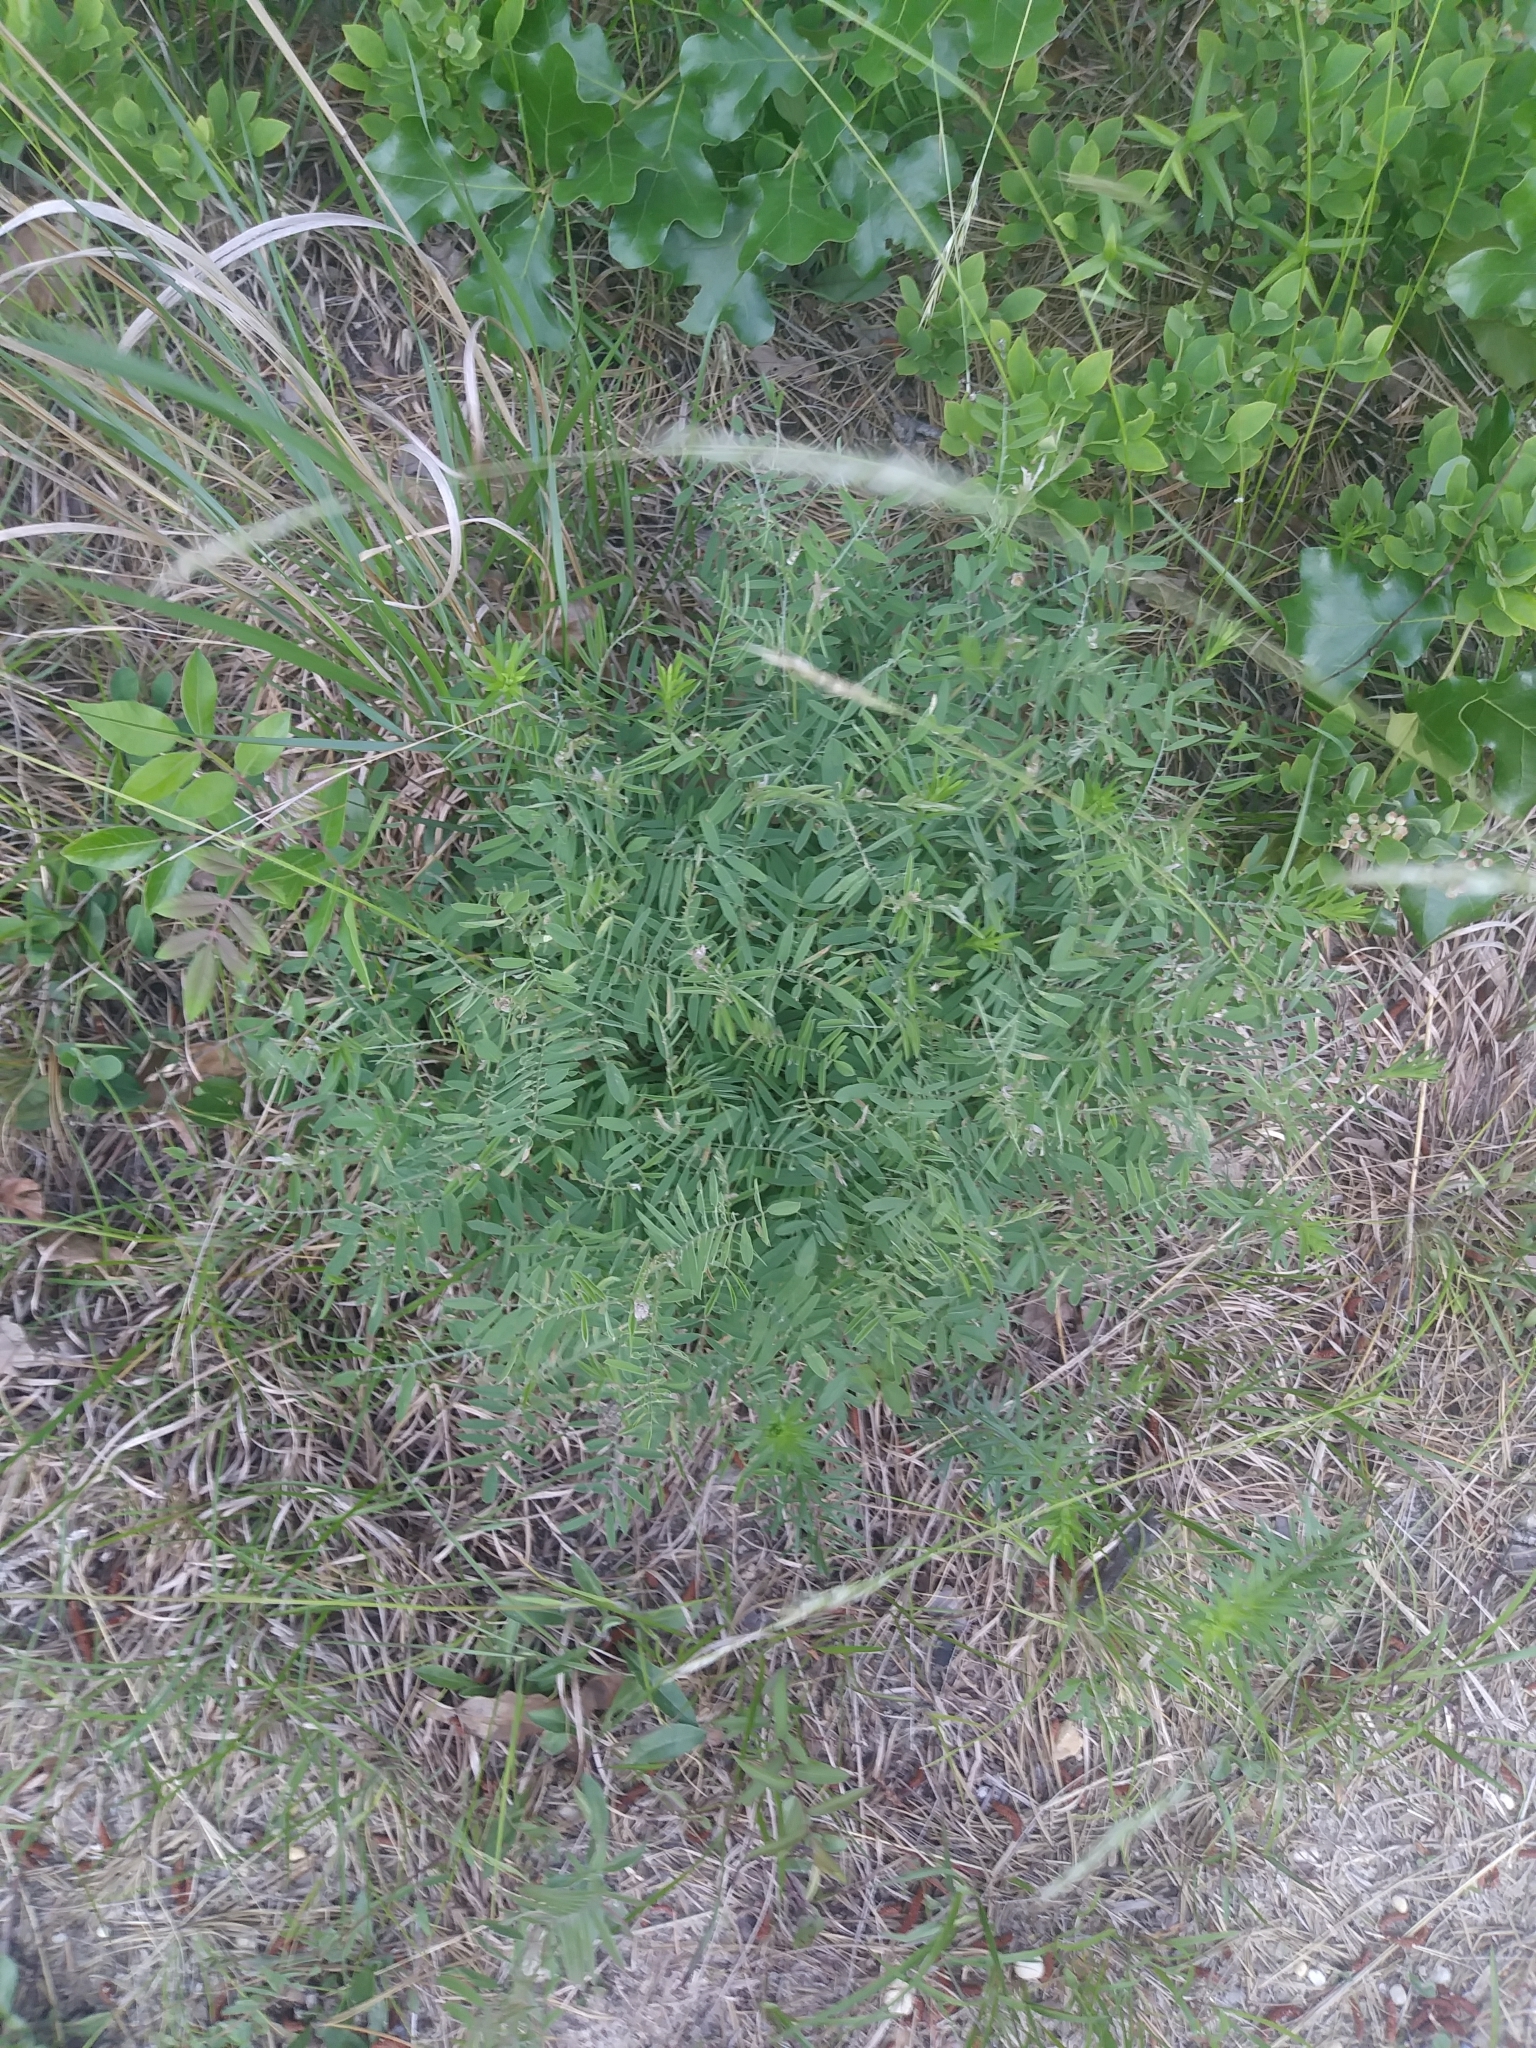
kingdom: Plantae
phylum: Tracheophyta
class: Magnoliopsida
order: Fabales
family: Fabaceae
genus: Tephrosia
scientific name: Tephrosia virginiana
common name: Rabbit-pea
